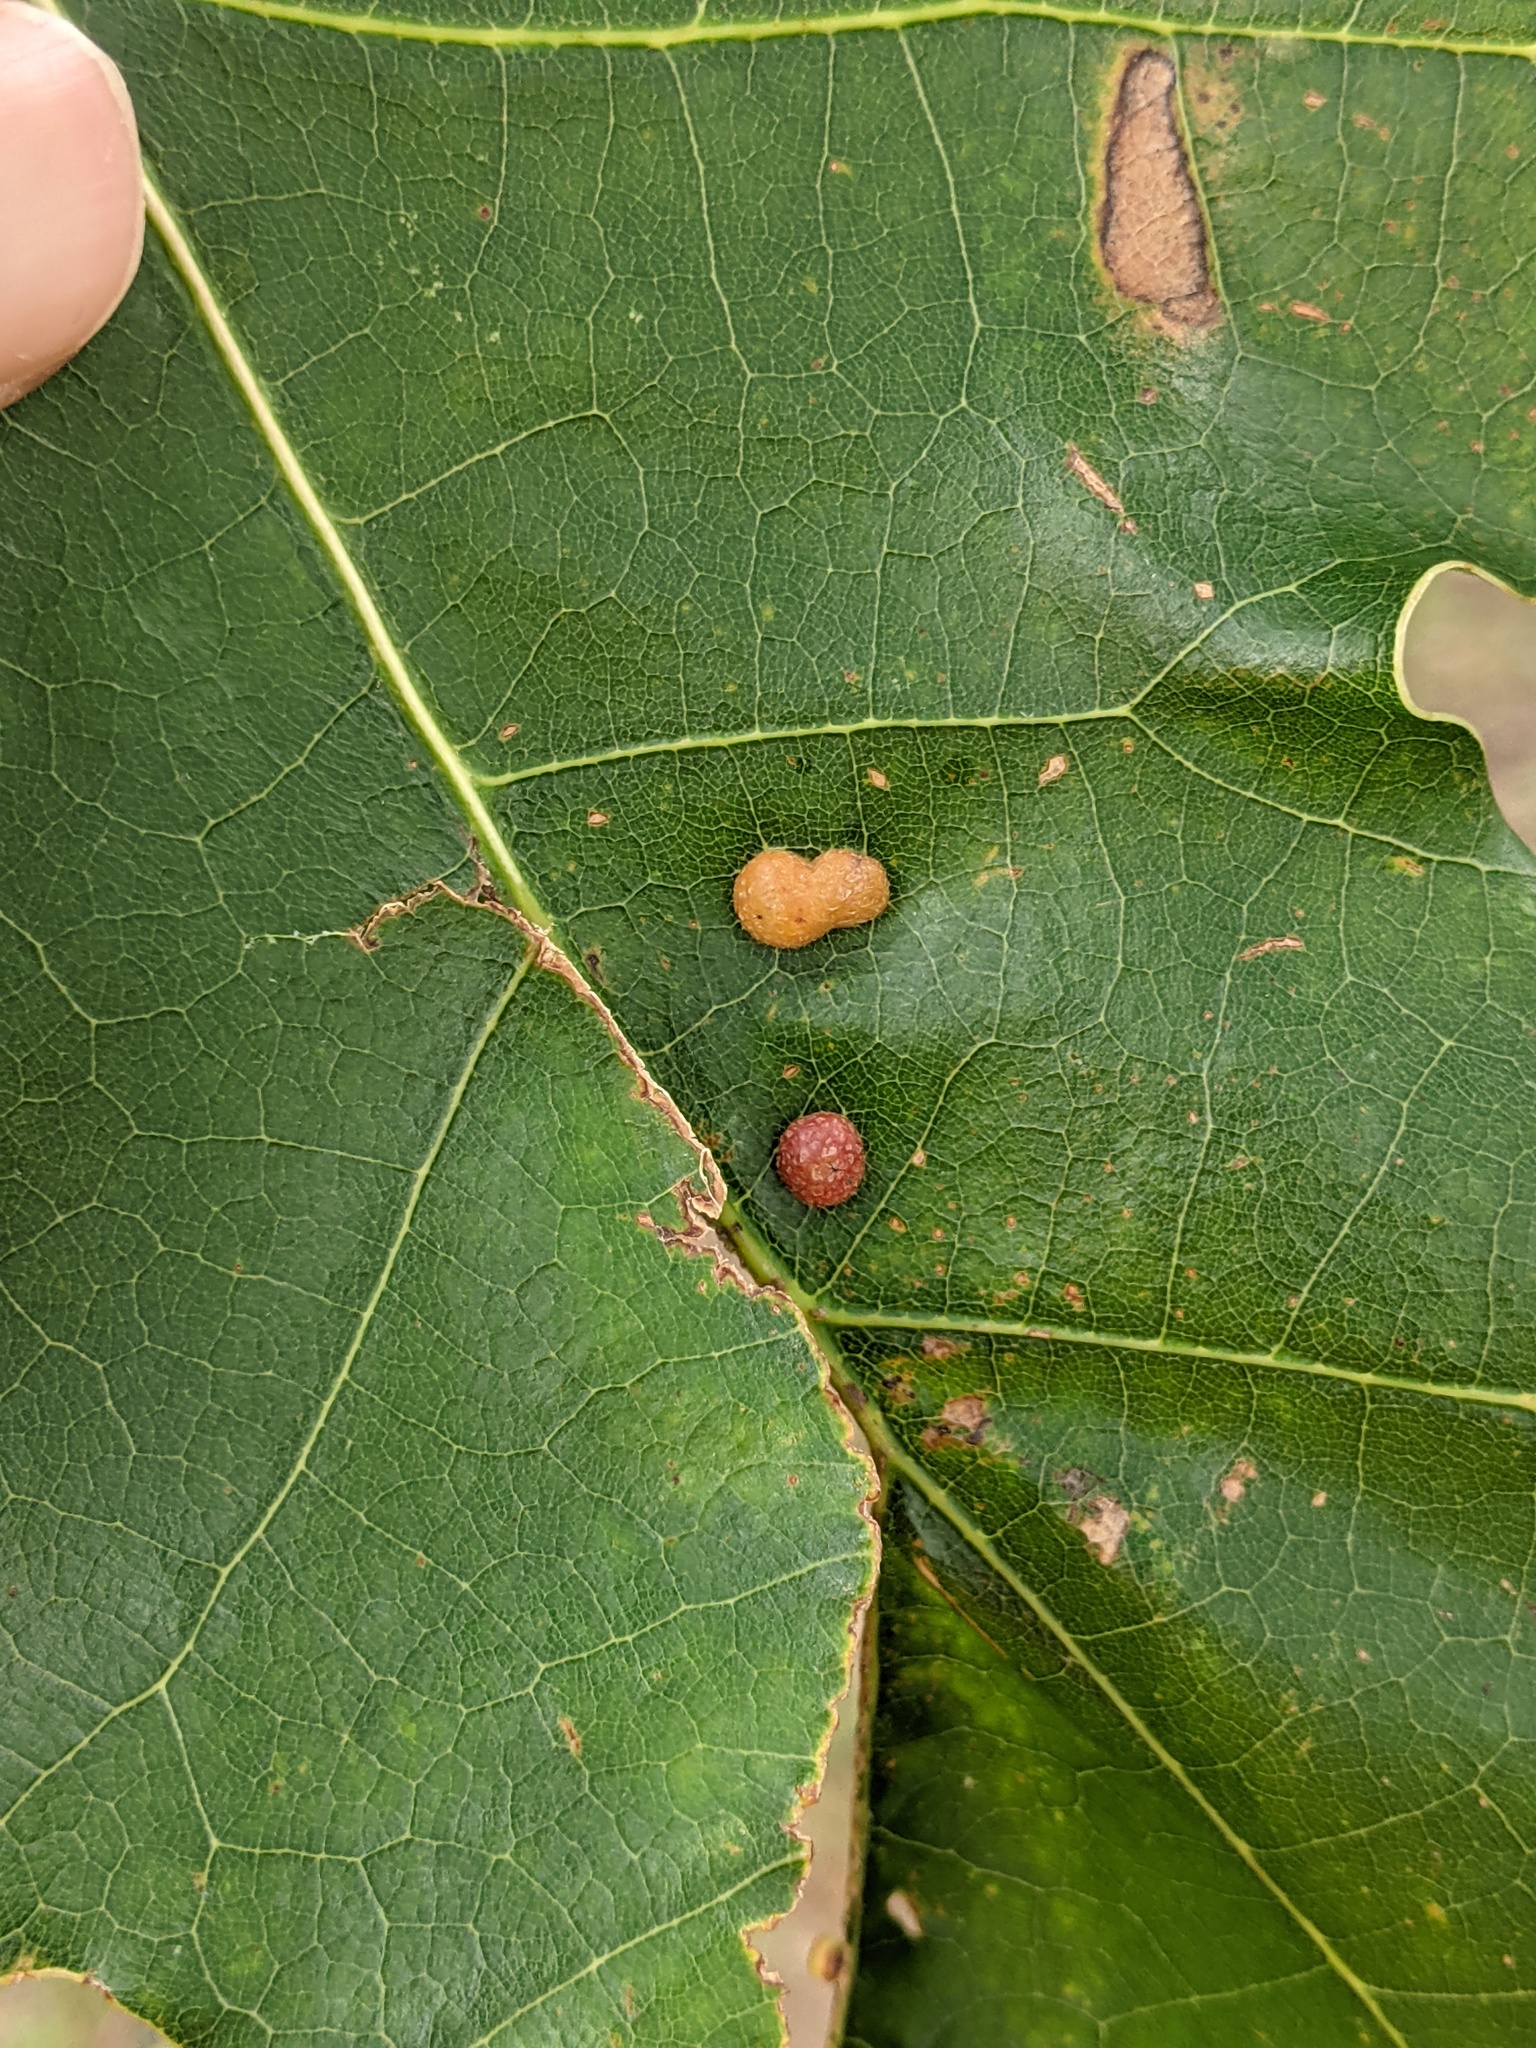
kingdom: Animalia
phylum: Arthropoda
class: Insecta
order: Diptera
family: Cecidomyiidae
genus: Polystepha
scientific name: Polystepha pilulae
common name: Oak leaf gall midge
